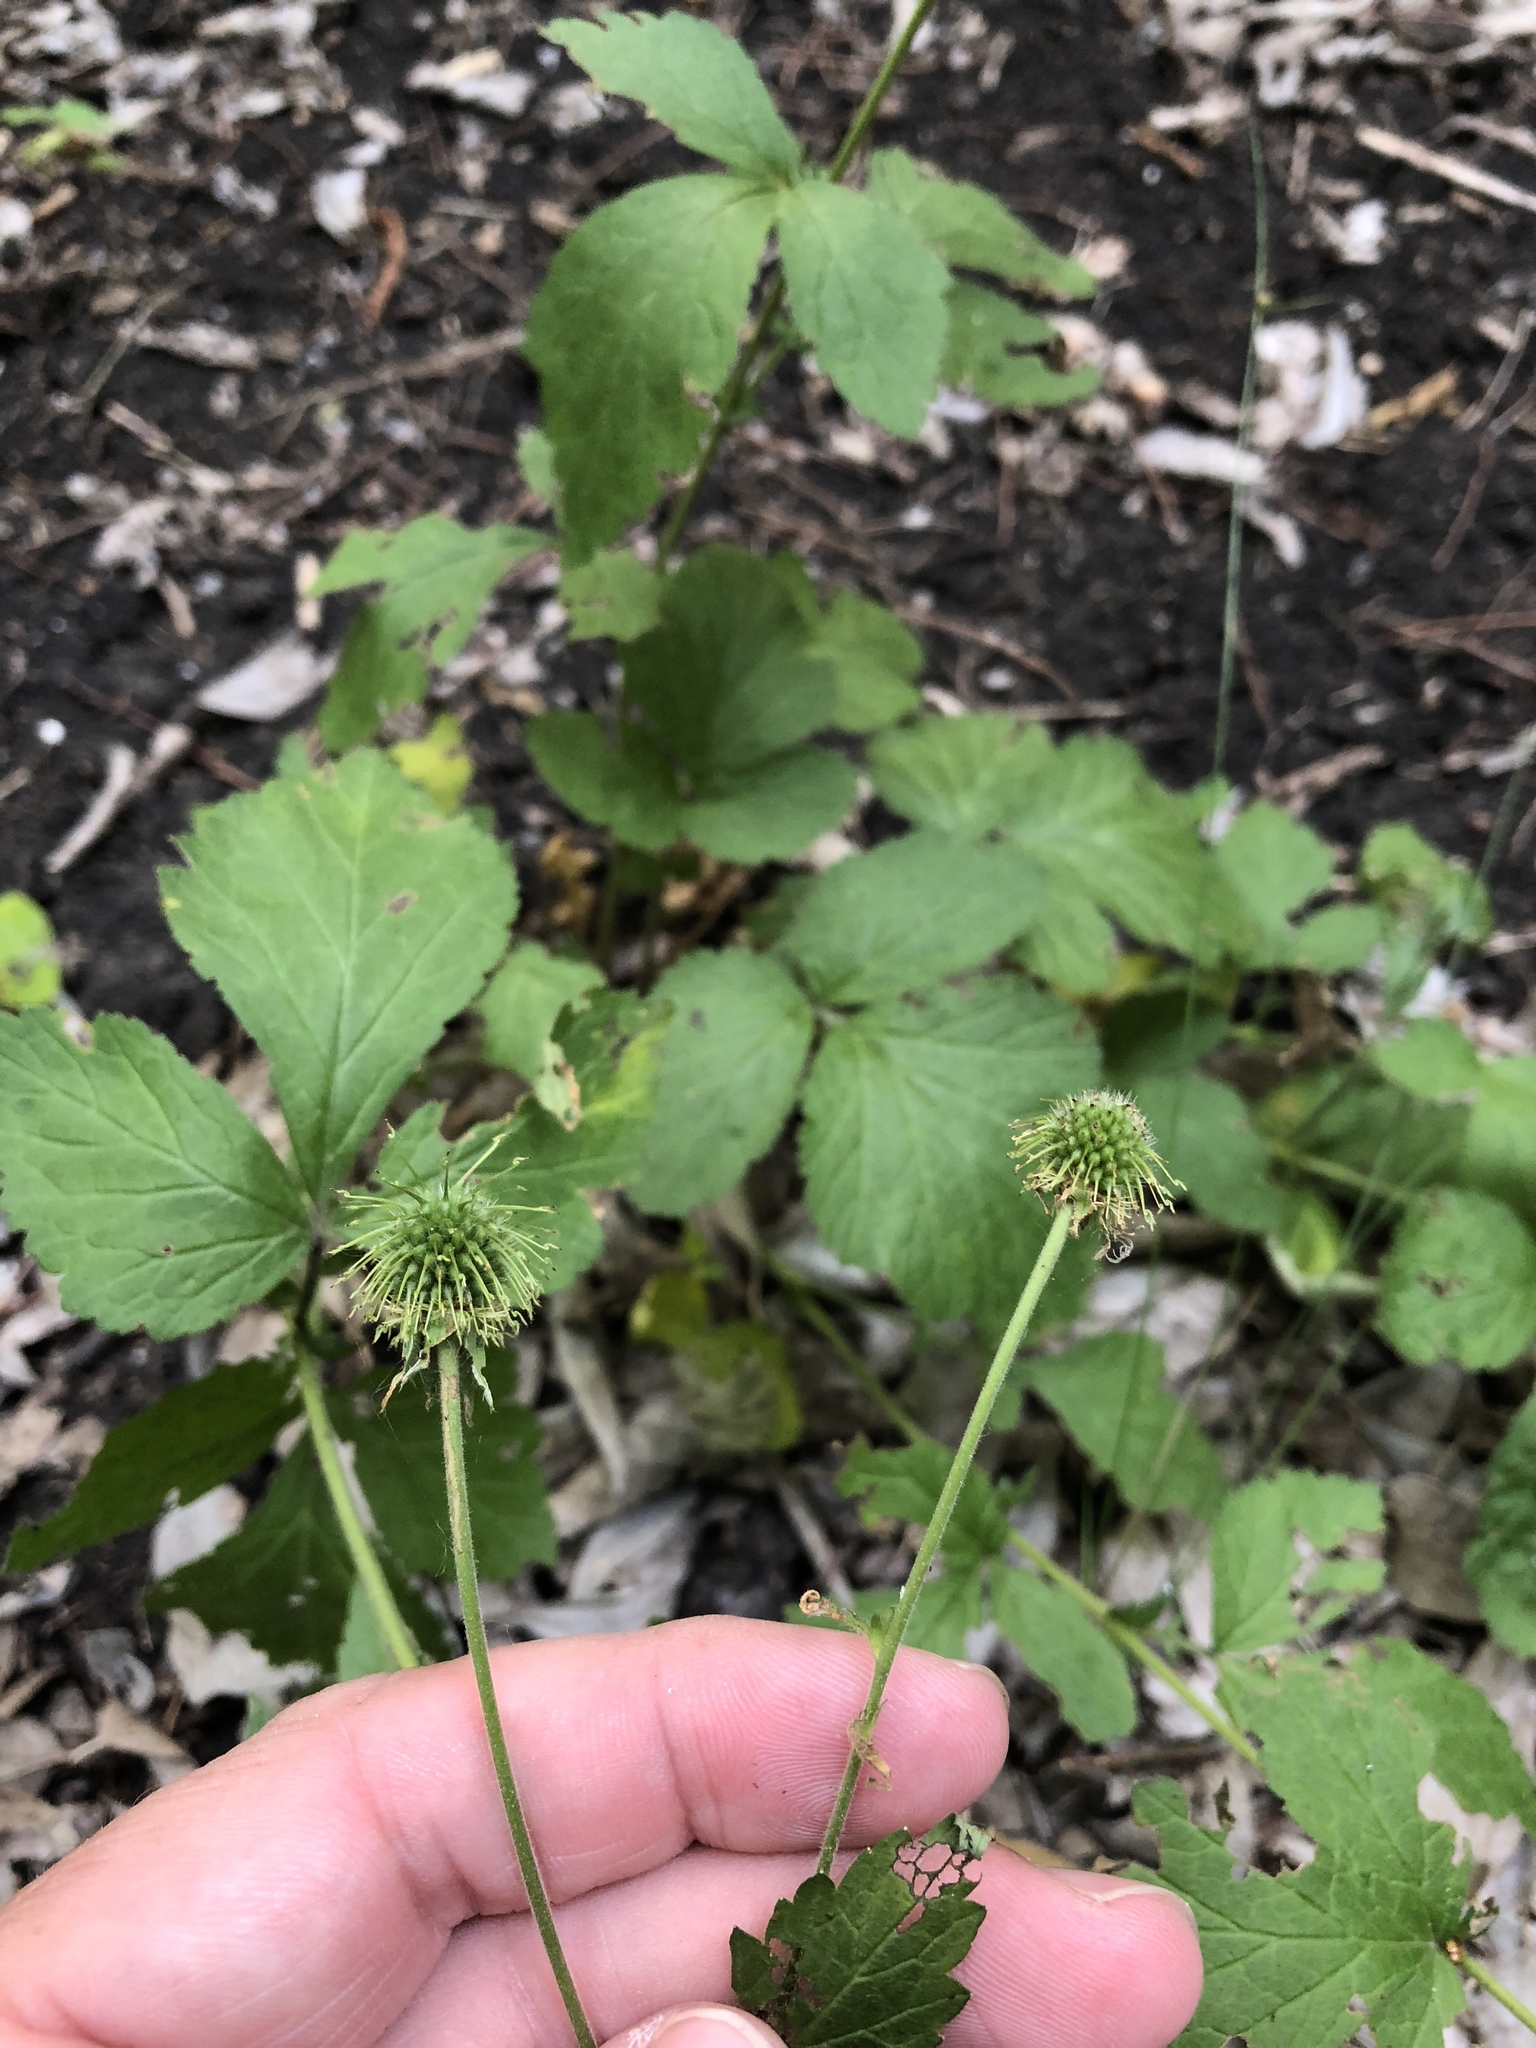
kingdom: Plantae
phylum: Tracheophyta
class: Magnoliopsida
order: Rosales
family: Rosaceae
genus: Geum
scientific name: Geum canadense
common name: White avens
